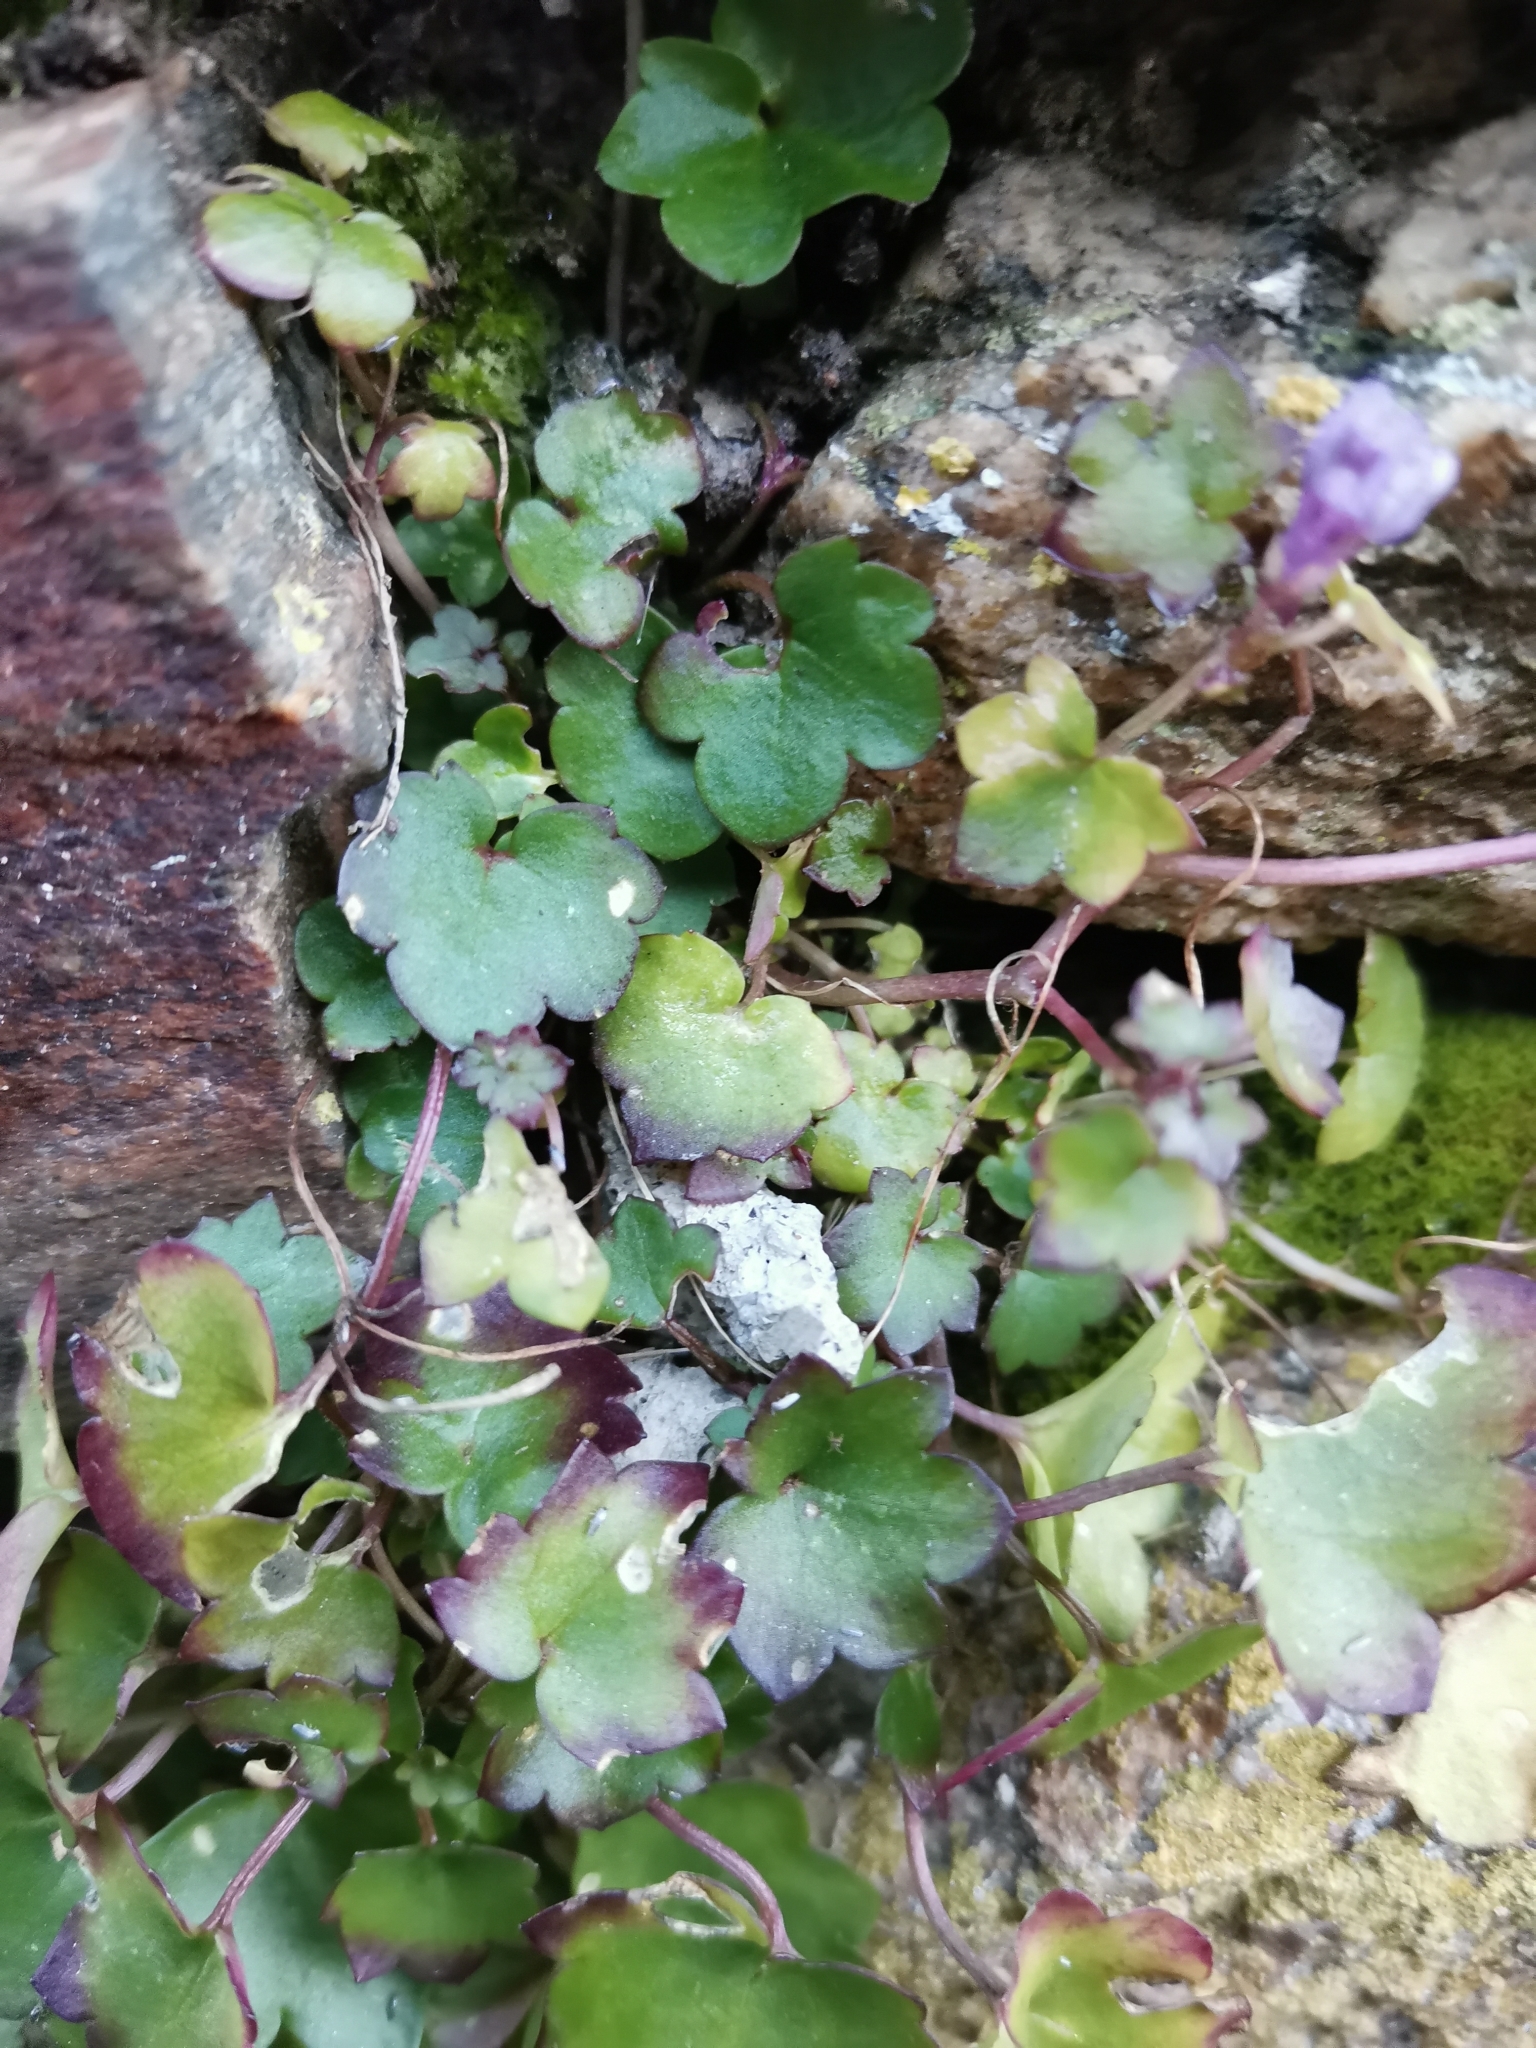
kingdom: Plantae
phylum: Tracheophyta
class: Magnoliopsida
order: Lamiales
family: Plantaginaceae
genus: Cymbalaria
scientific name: Cymbalaria muralis
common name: Ivy-leaved toadflax
